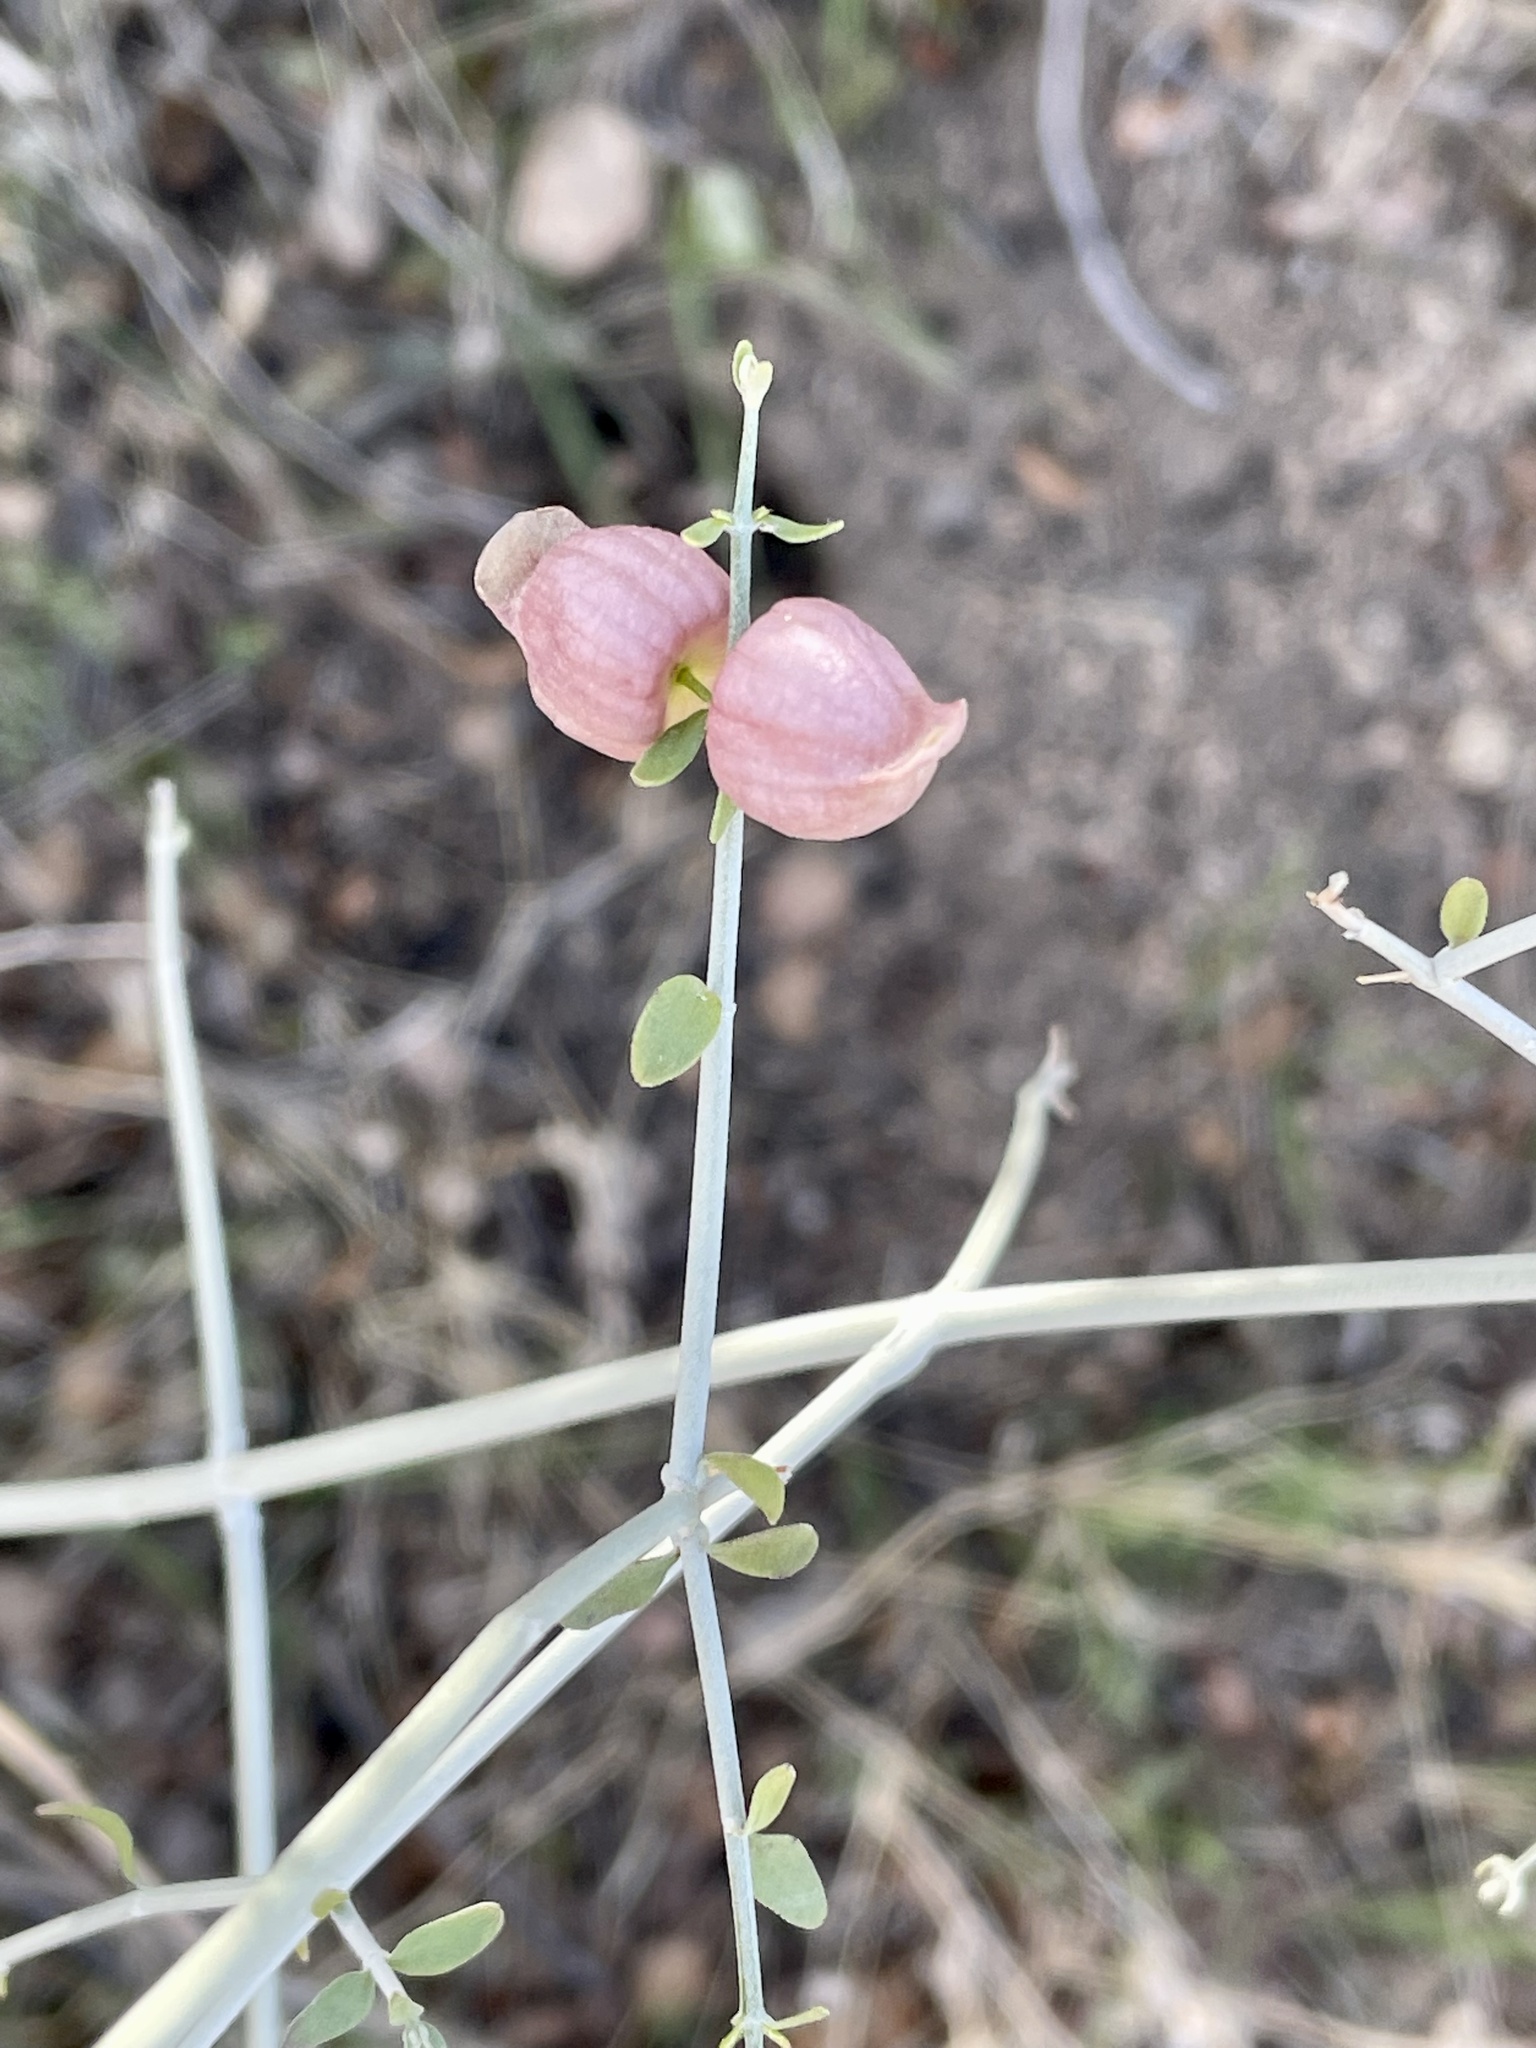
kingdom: Plantae
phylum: Tracheophyta
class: Magnoliopsida
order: Lamiales
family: Lamiaceae
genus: Scutellaria
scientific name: Scutellaria mexicana
